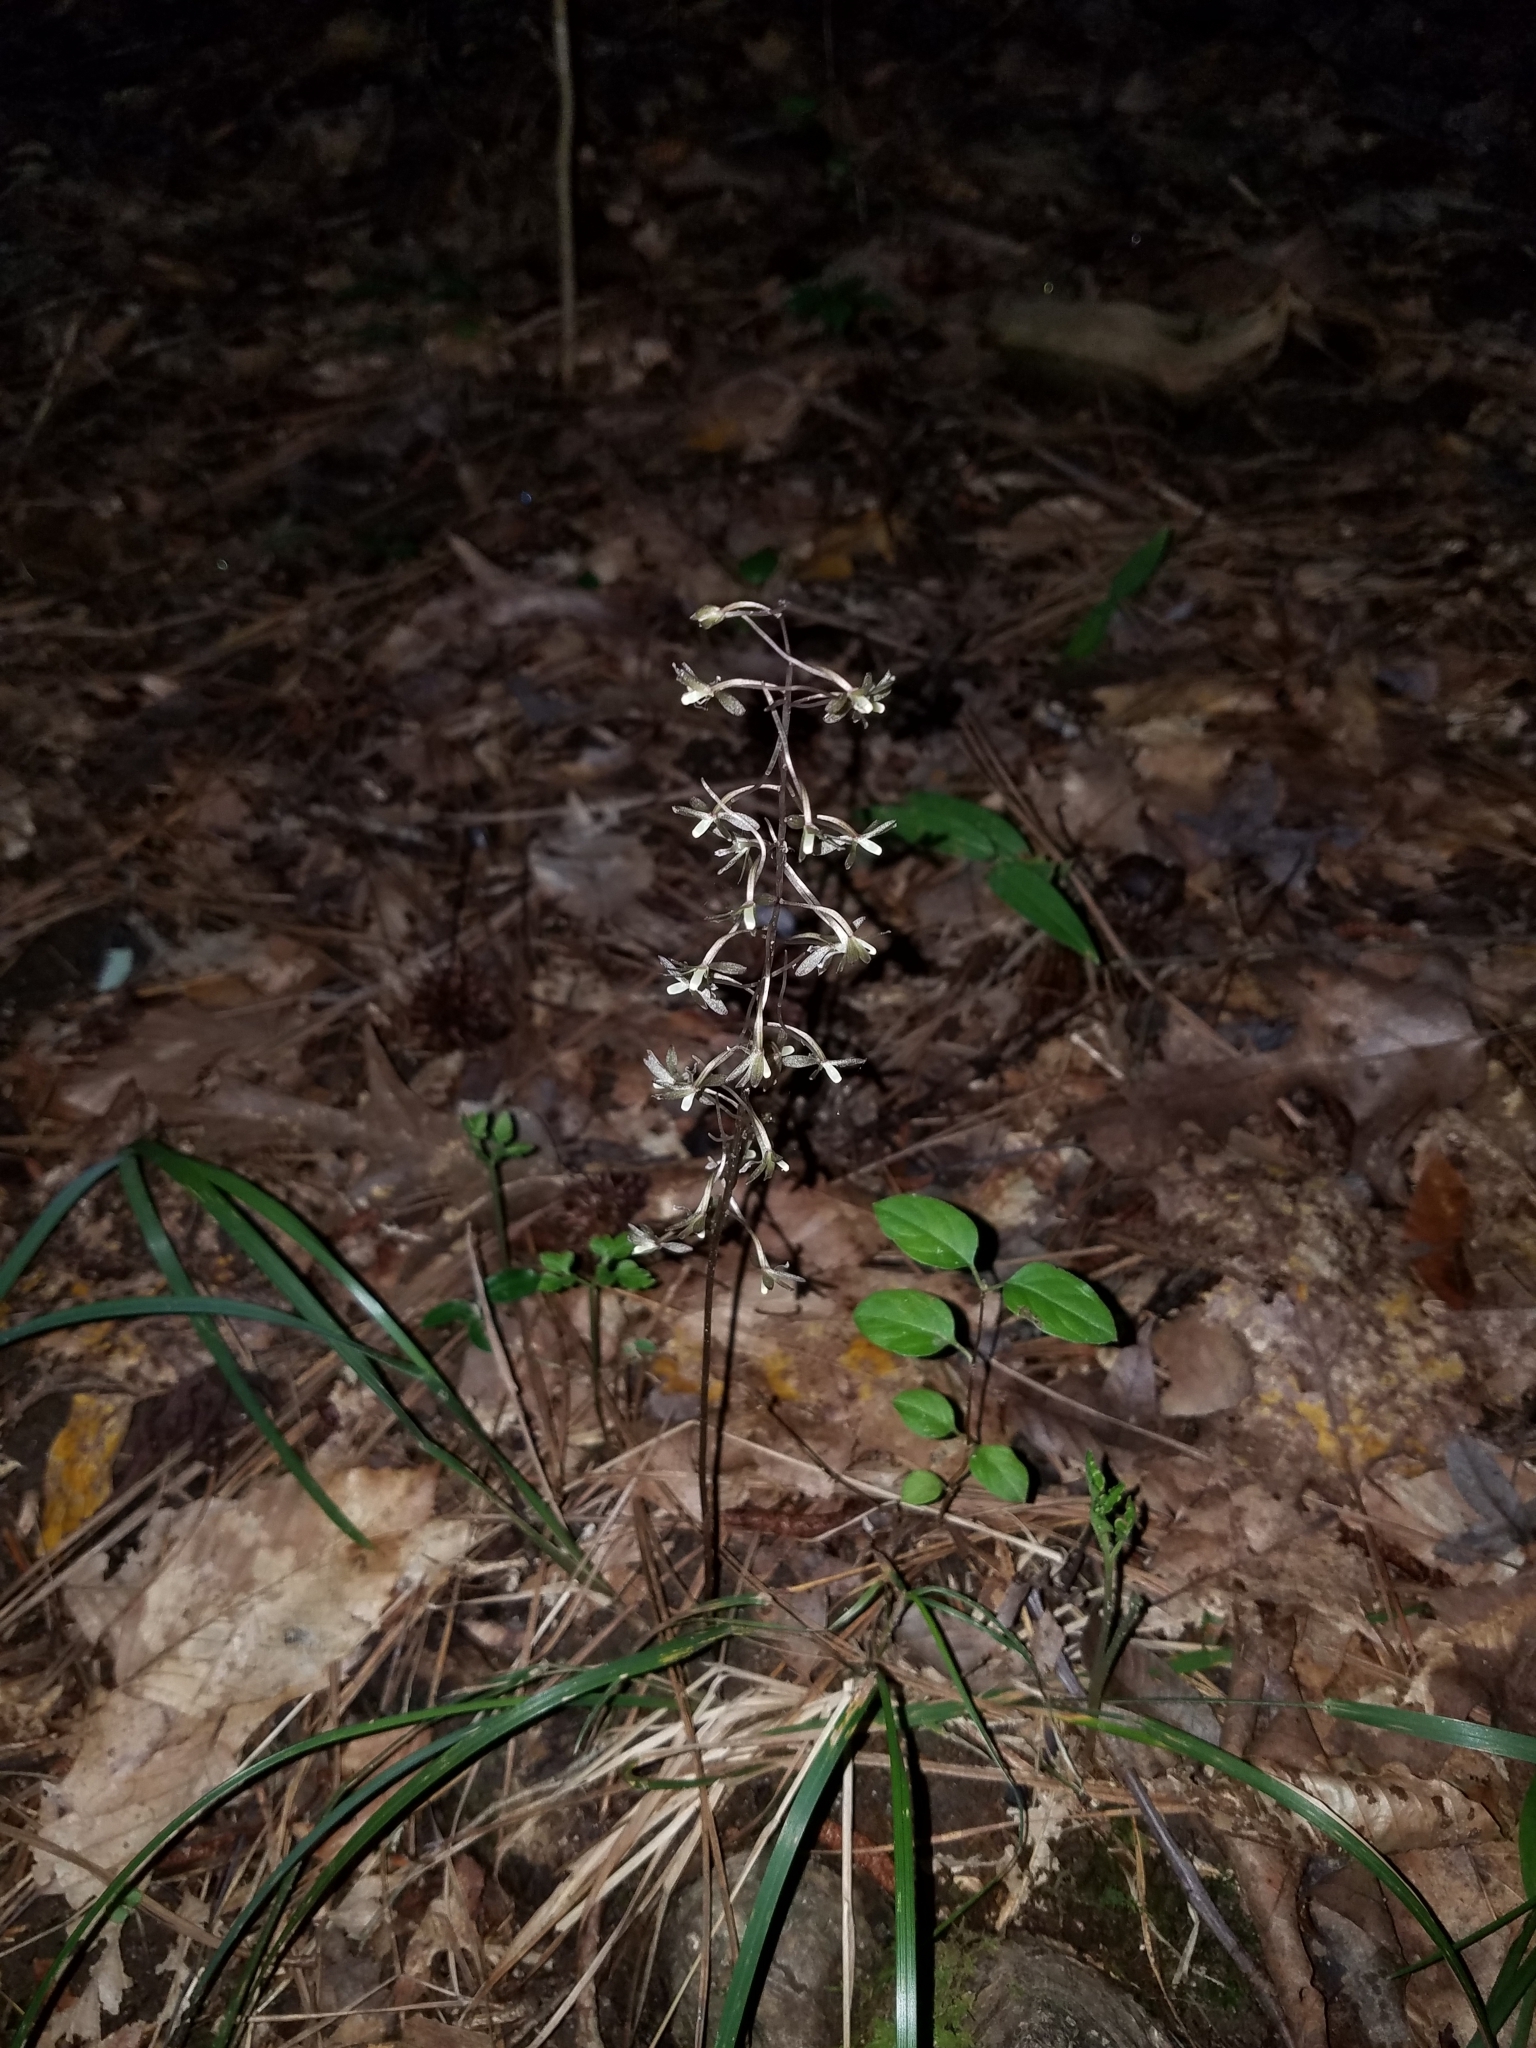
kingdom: Plantae
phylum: Tracheophyta
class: Liliopsida
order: Asparagales
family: Orchidaceae
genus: Tipularia
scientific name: Tipularia discolor
